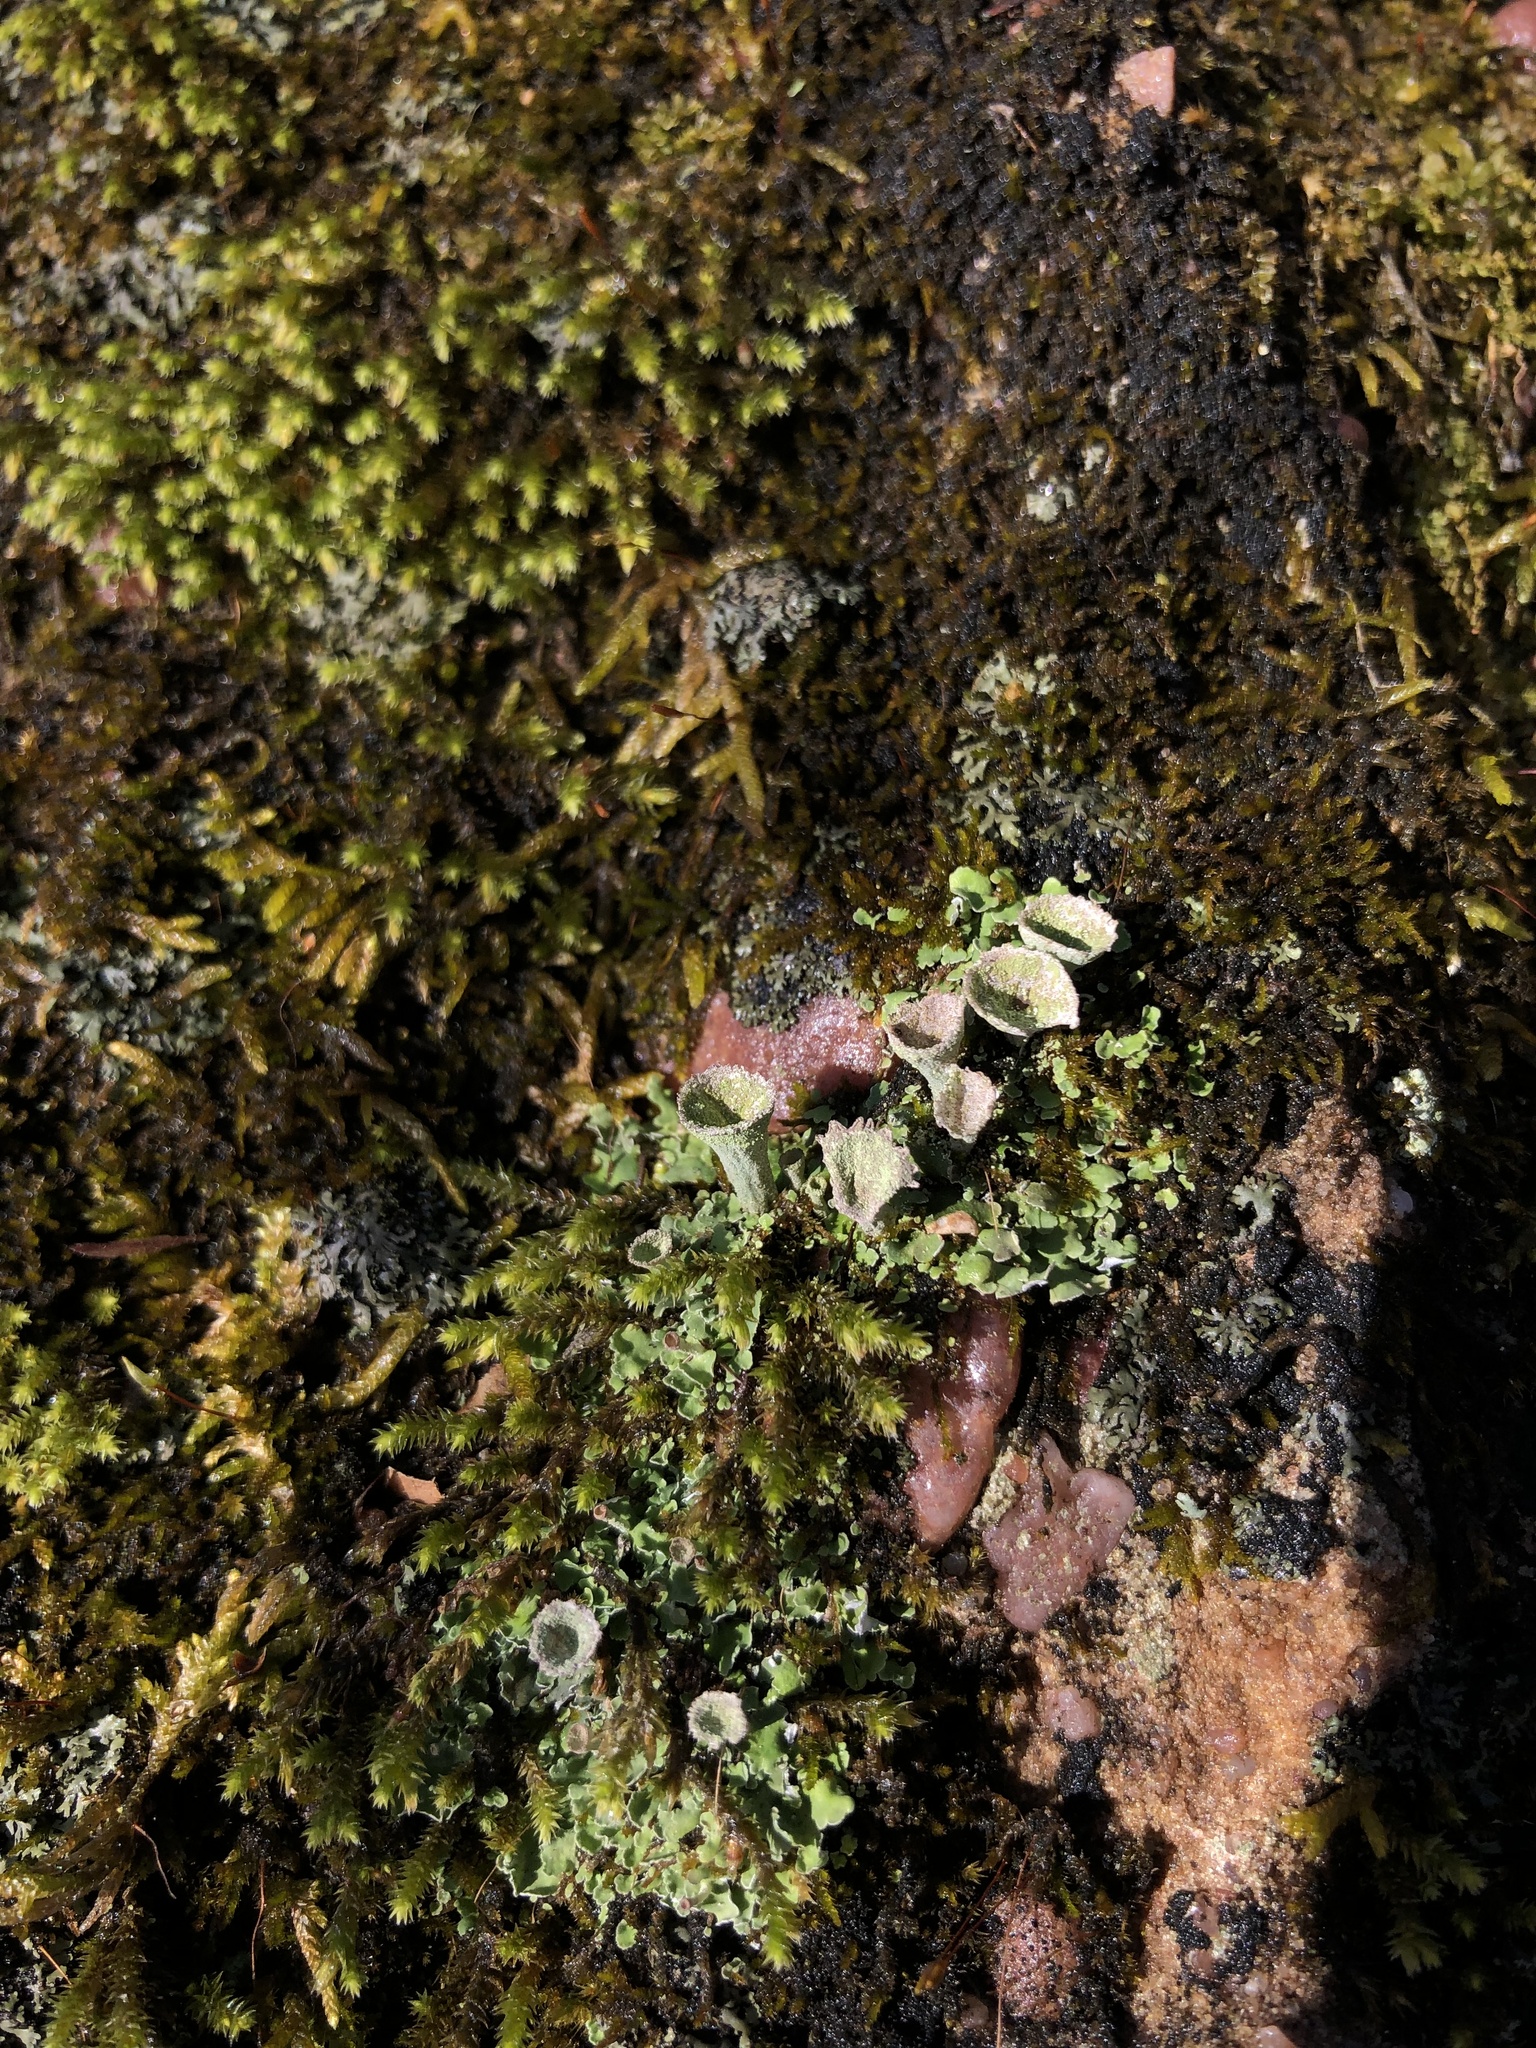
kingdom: Fungi
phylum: Ascomycota
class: Lecanoromycetes
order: Lecanorales
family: Cladoniaceae
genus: Cladonia
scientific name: Cladonia pyxidata
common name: Pebbled pixie cup
